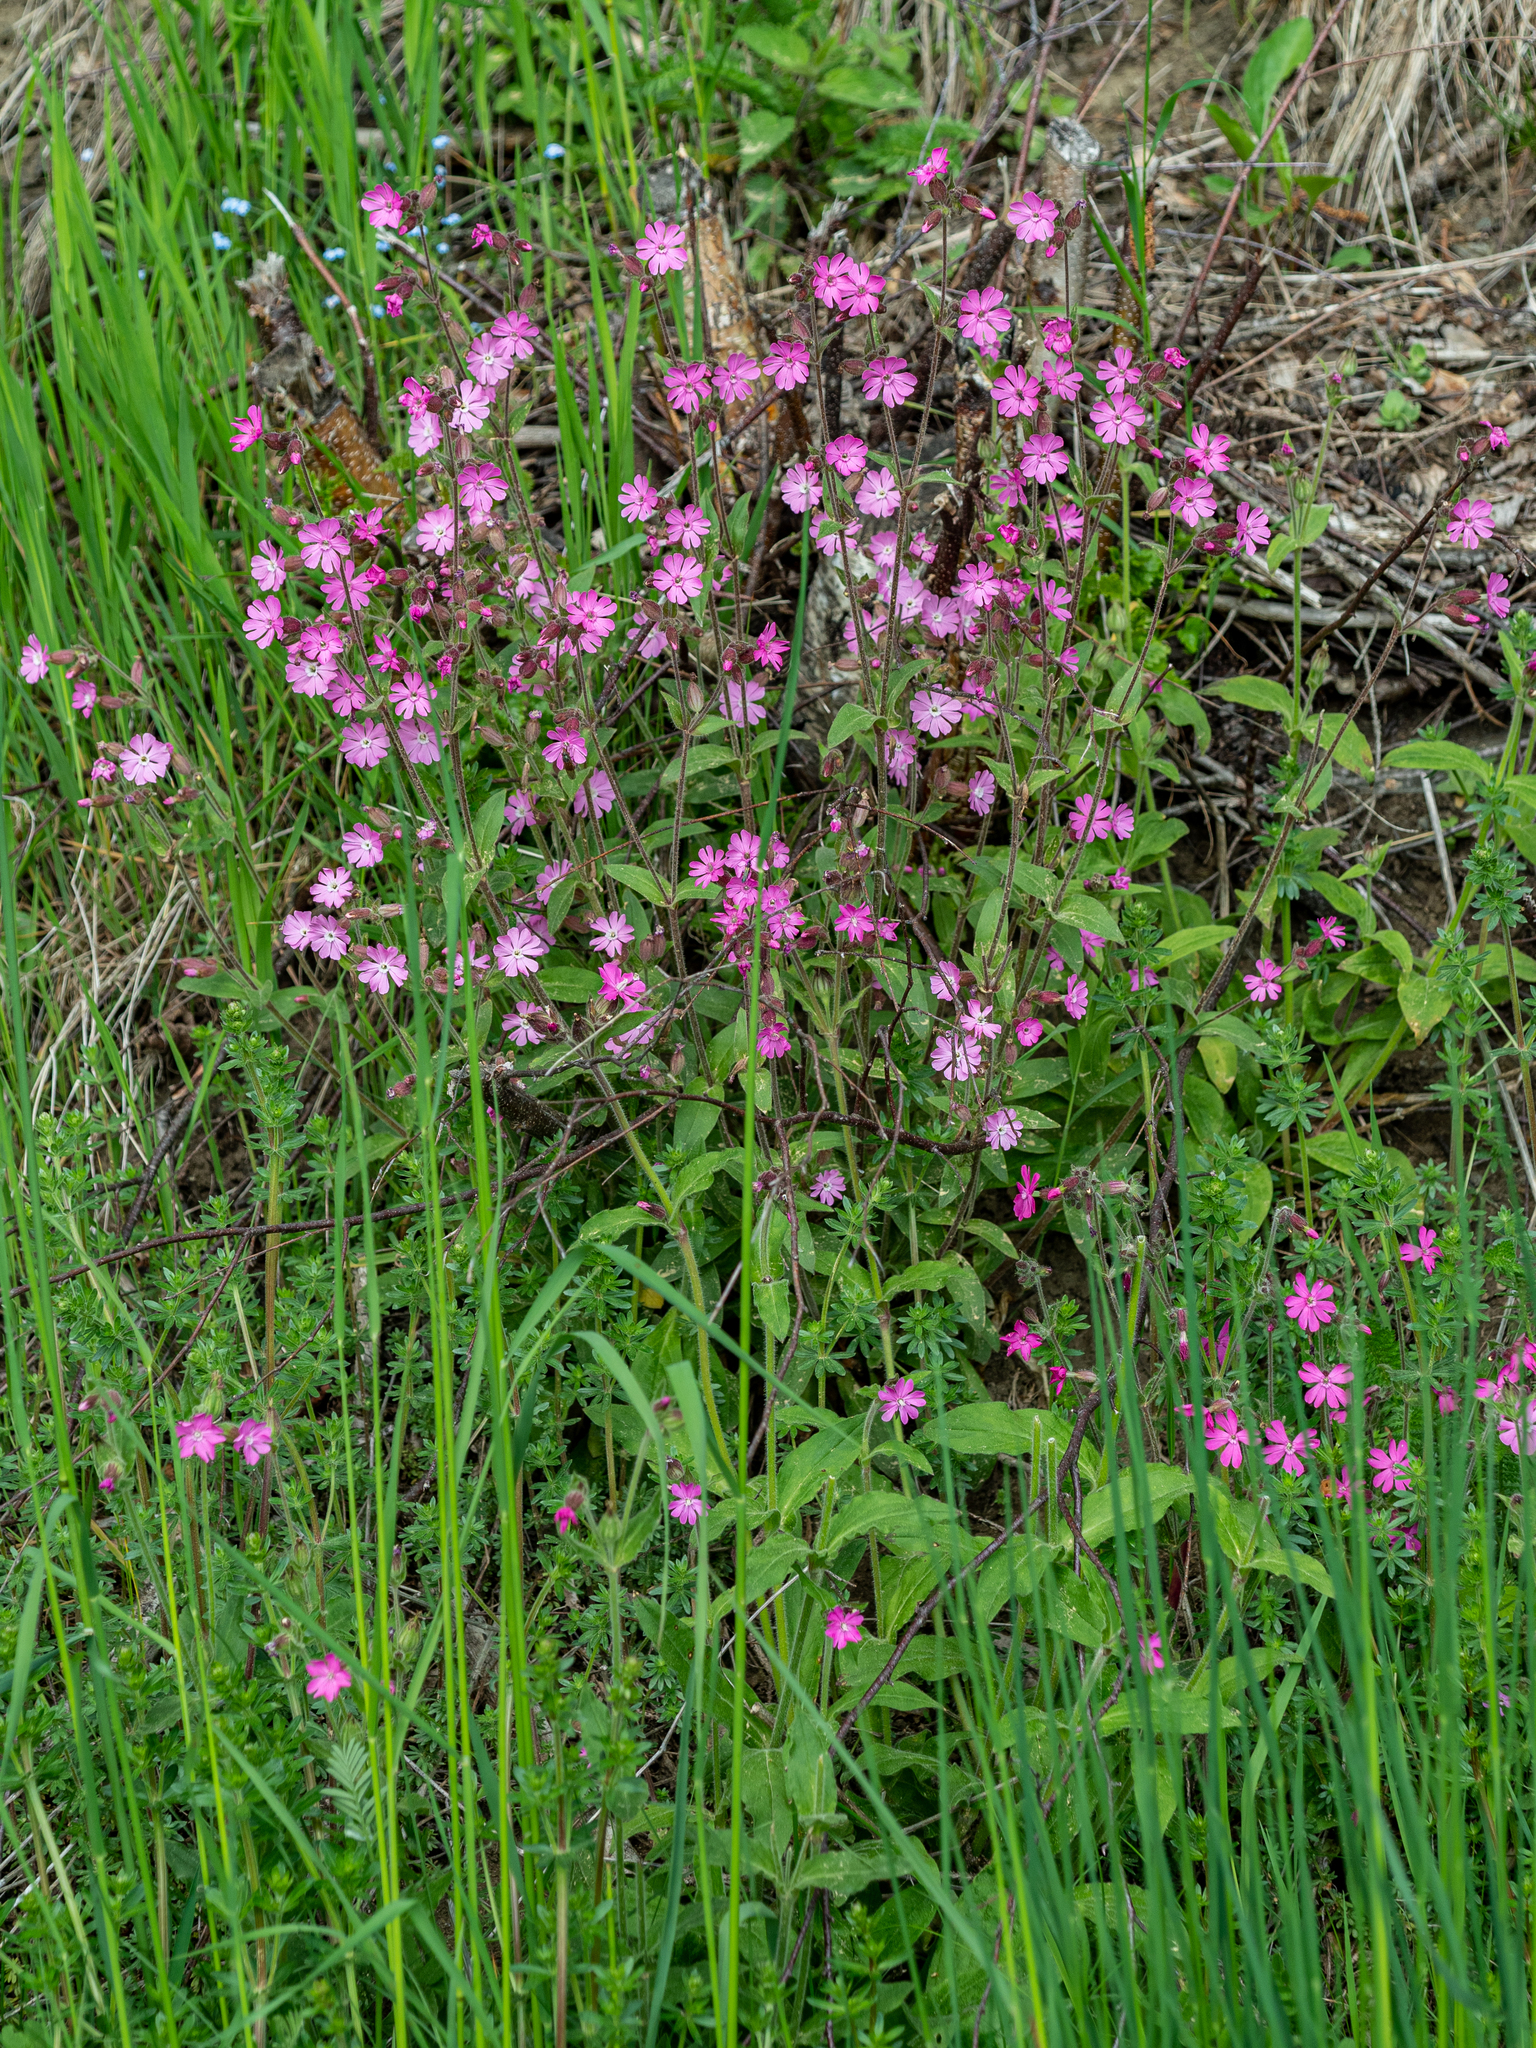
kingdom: Plantae
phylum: Tracheophyta
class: Magnoliopsida
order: Caryophyllales
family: Caryophyllaceae
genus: Silene
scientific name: Silene dioica
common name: Red campion
